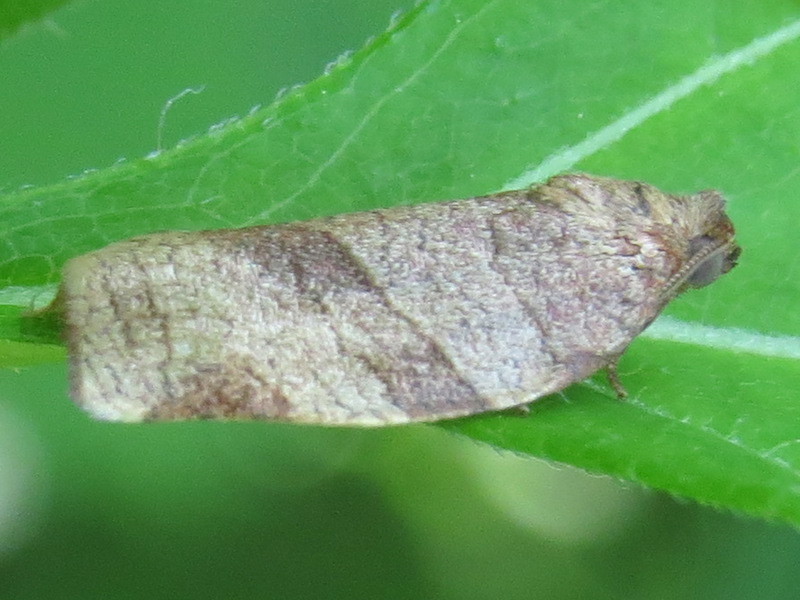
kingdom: Animalia
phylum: Arthropoda
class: Insecta
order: Lepidoptera
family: Tortricidae
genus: Choristoneura
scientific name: Choristoneura rosaceana
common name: Oblique-banded leafroller moth
